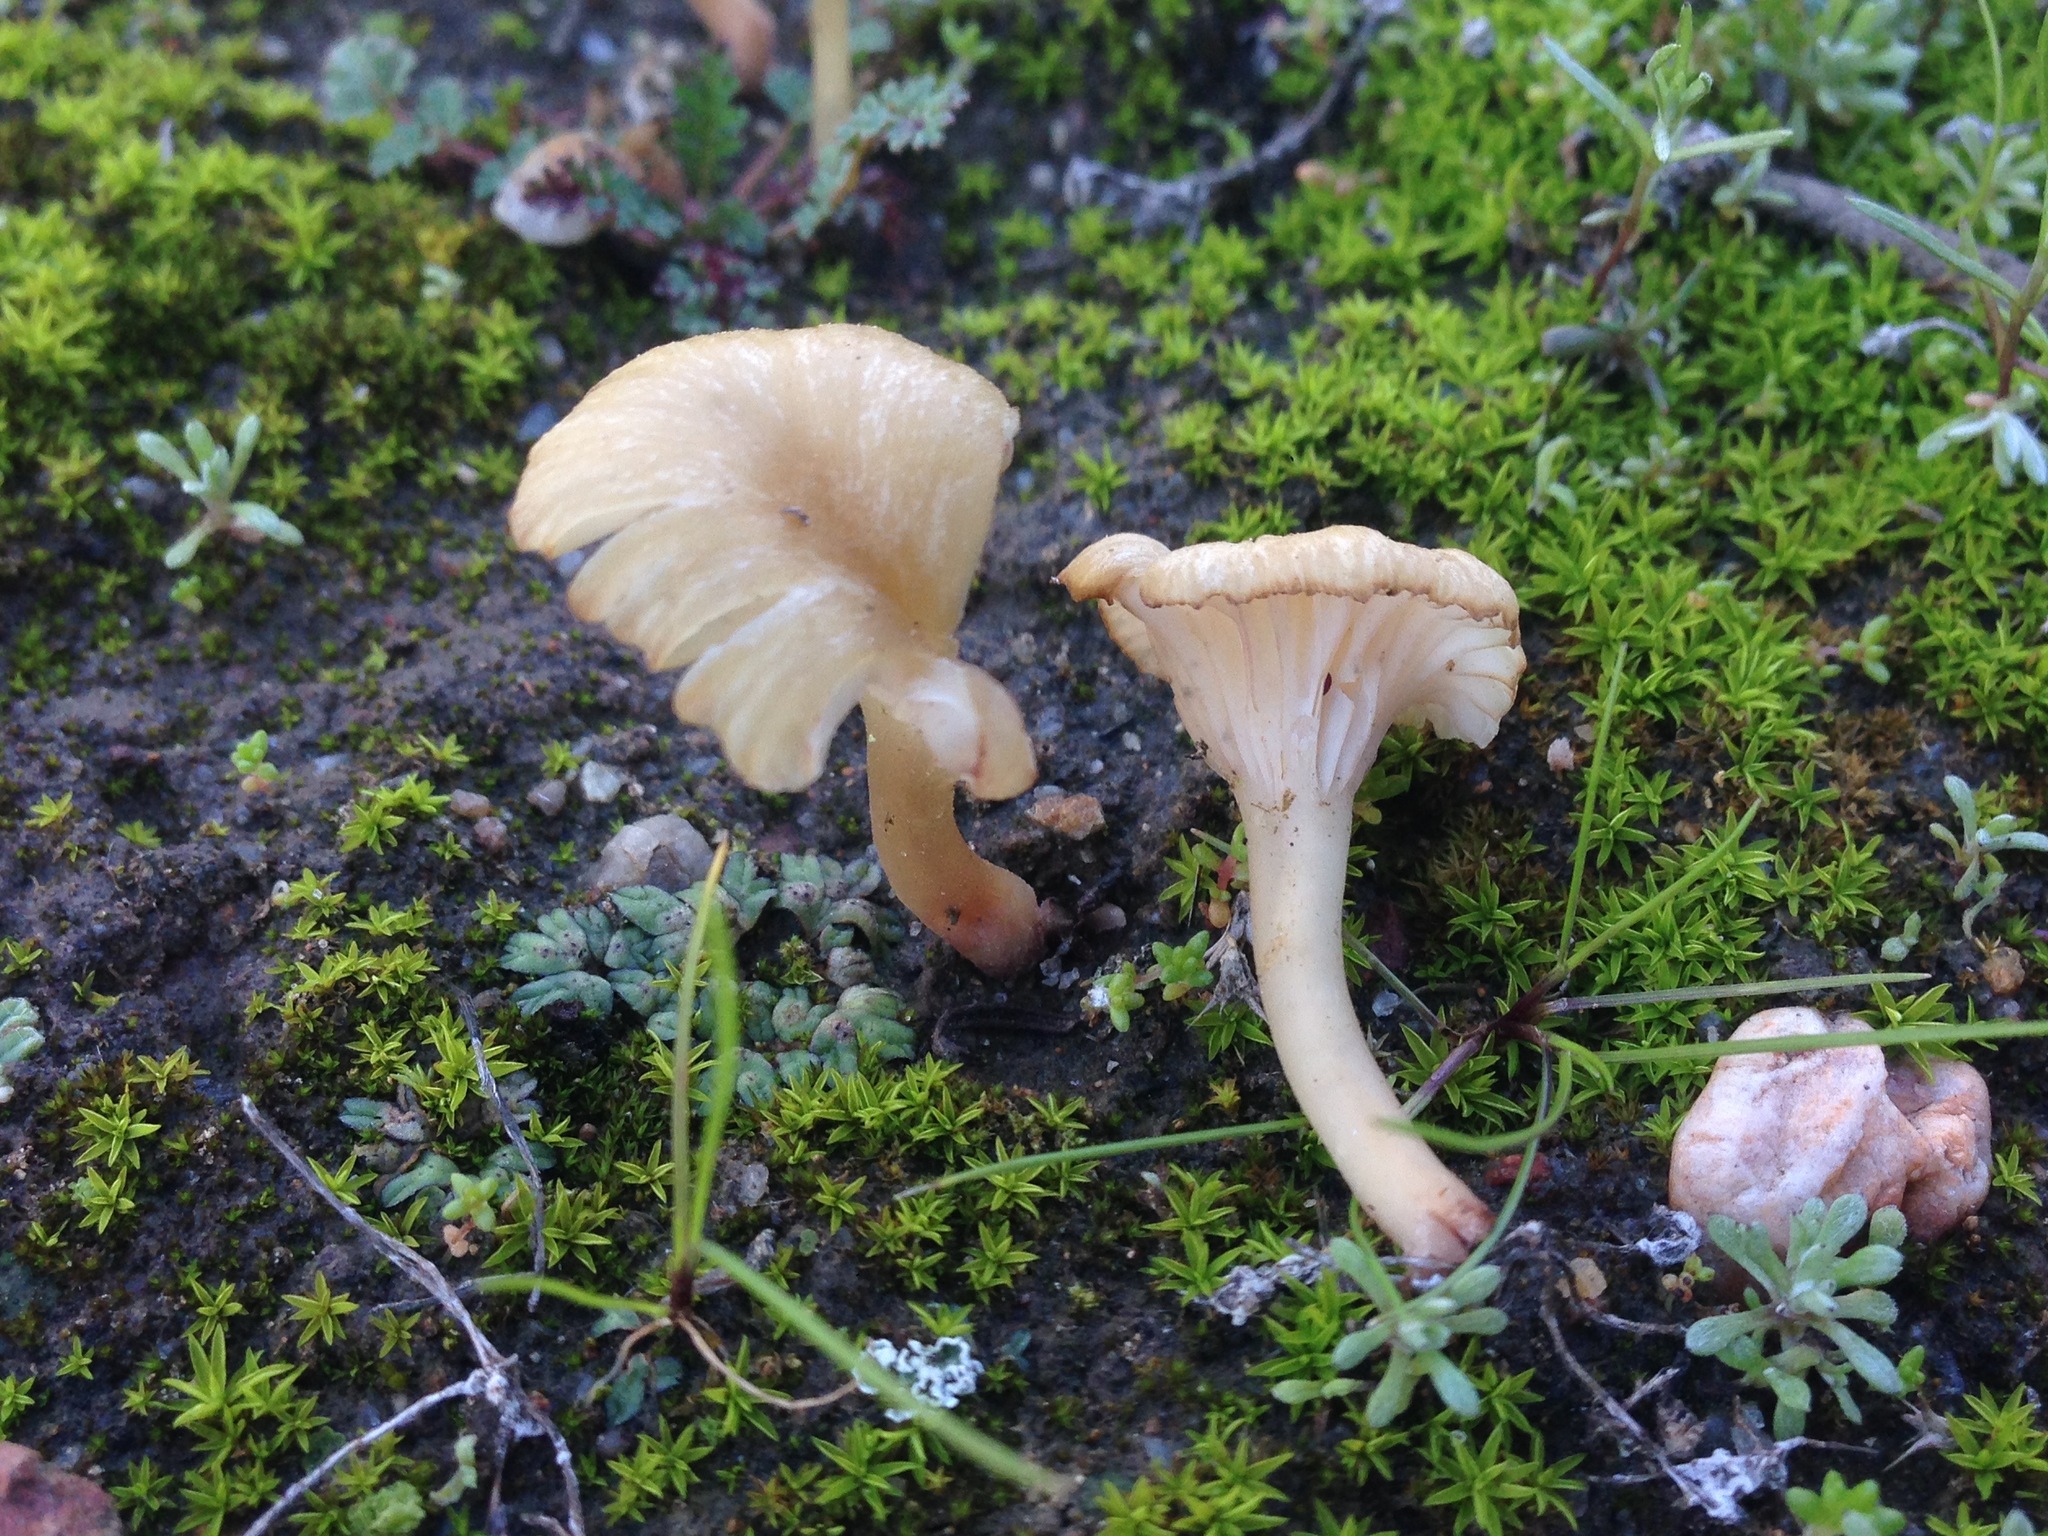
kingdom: Fungi
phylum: Basidiomycota
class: Agaricomycetes
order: Hymenochaetales
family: Rickenellaceae
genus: Contumyces
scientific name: Contumyces rosellus
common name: Rosy navel
